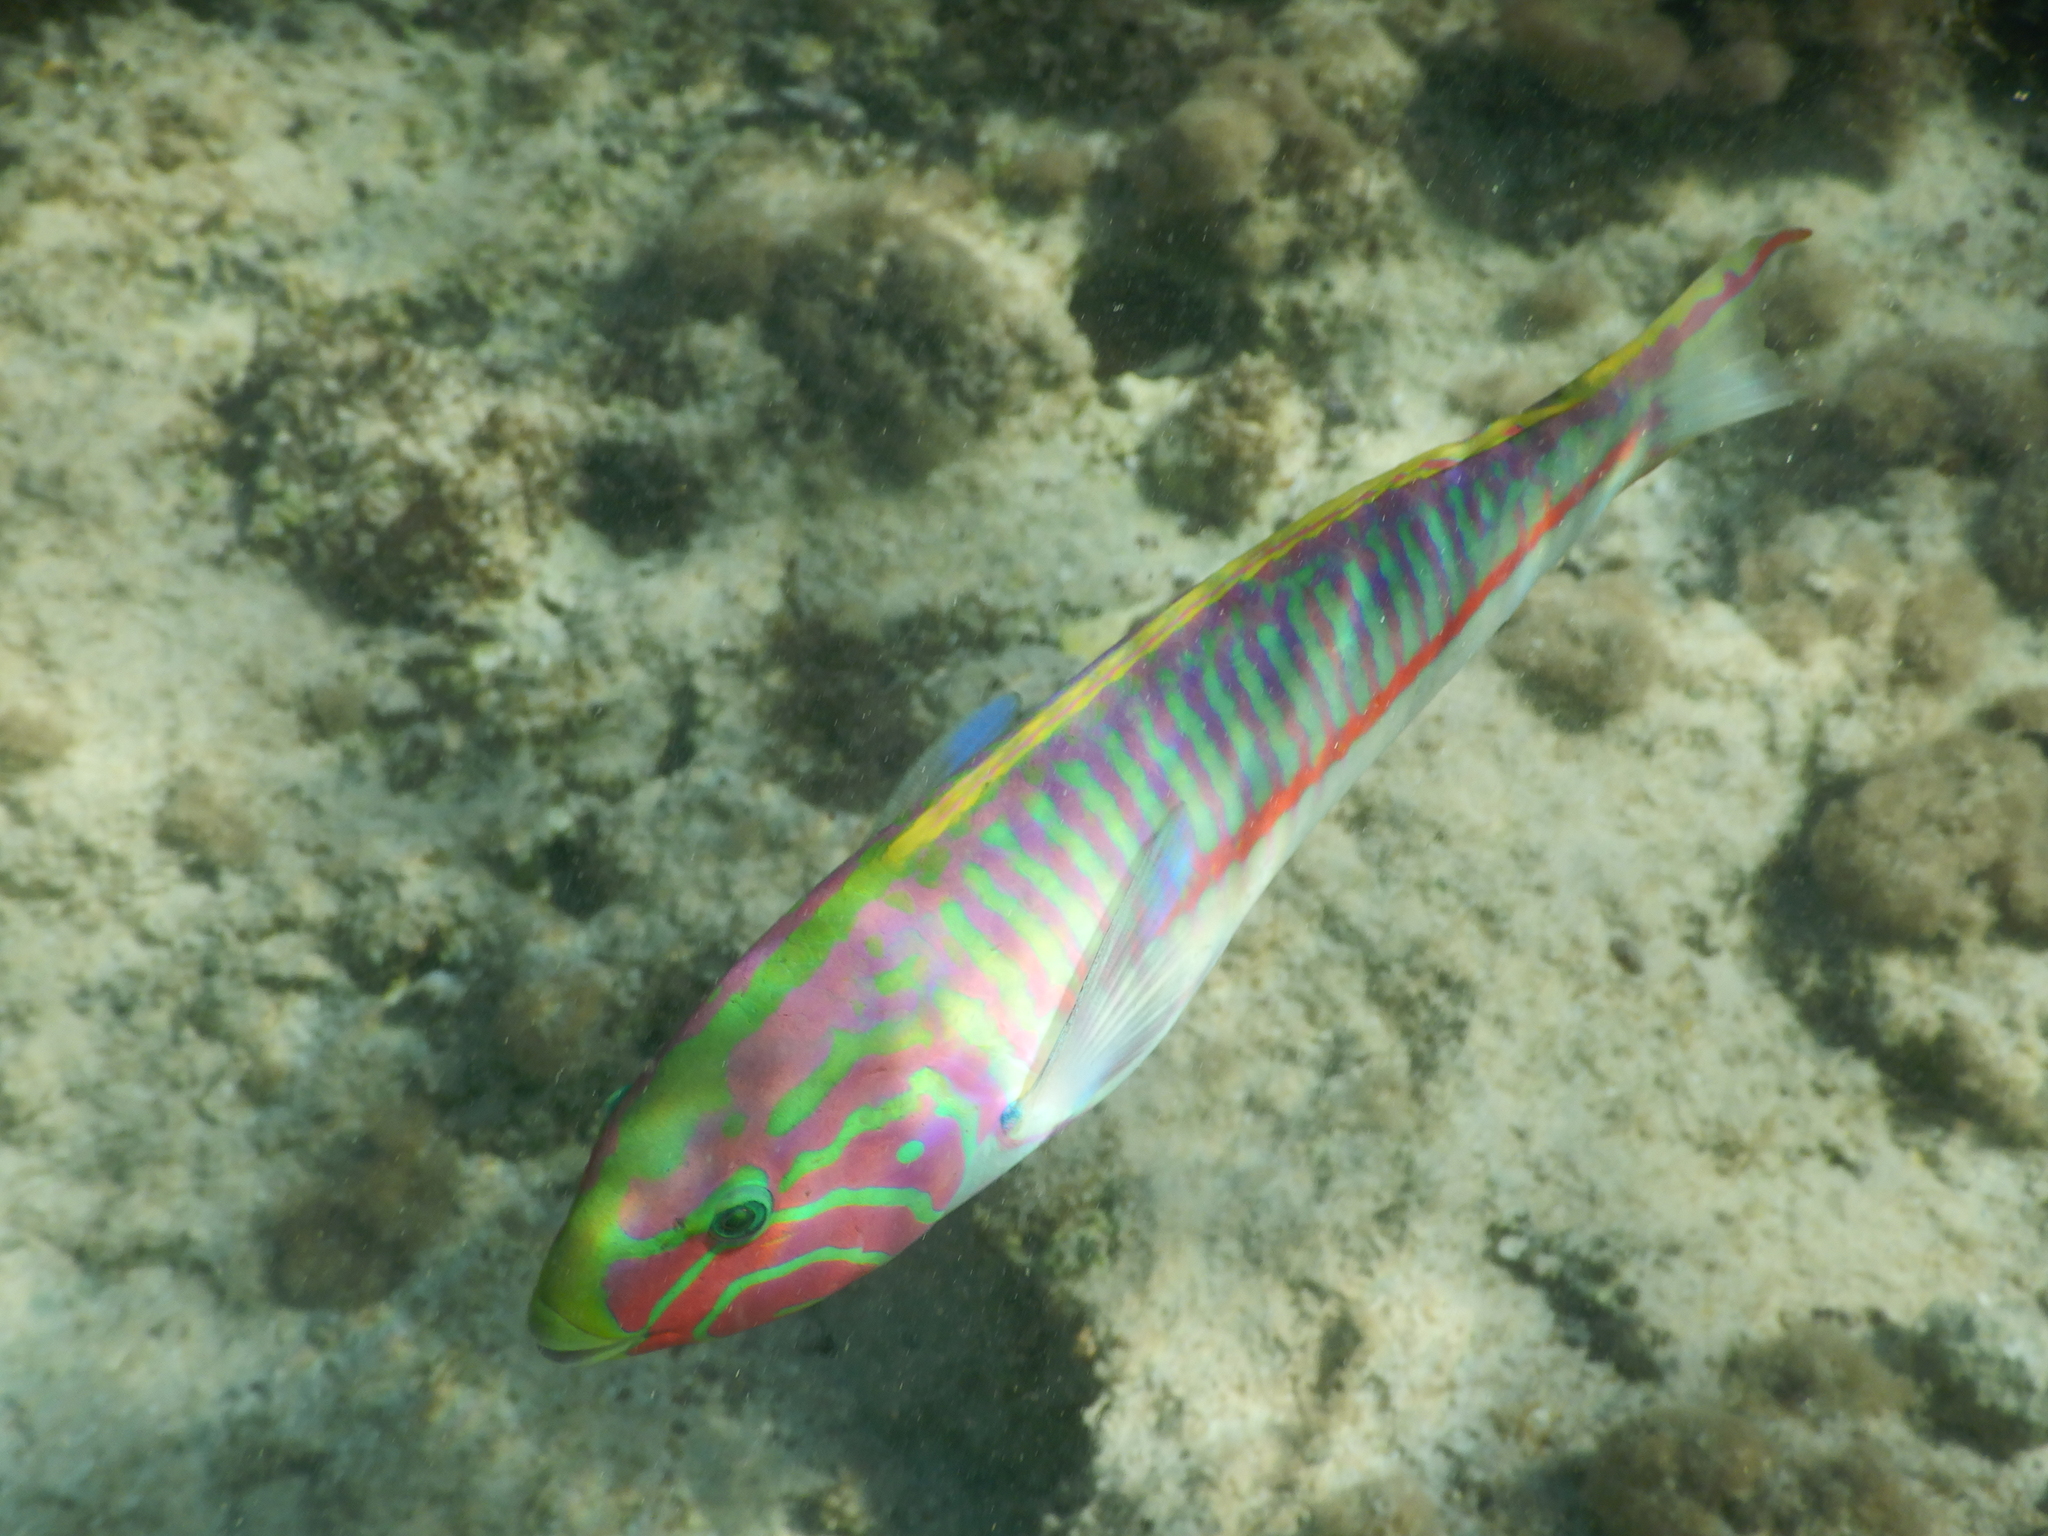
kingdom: Animalia
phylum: Chordata
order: Perciformes
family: Labridae
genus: Thalassoma
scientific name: Thalassoma rueppellii
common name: Klunzinger's wrasse
